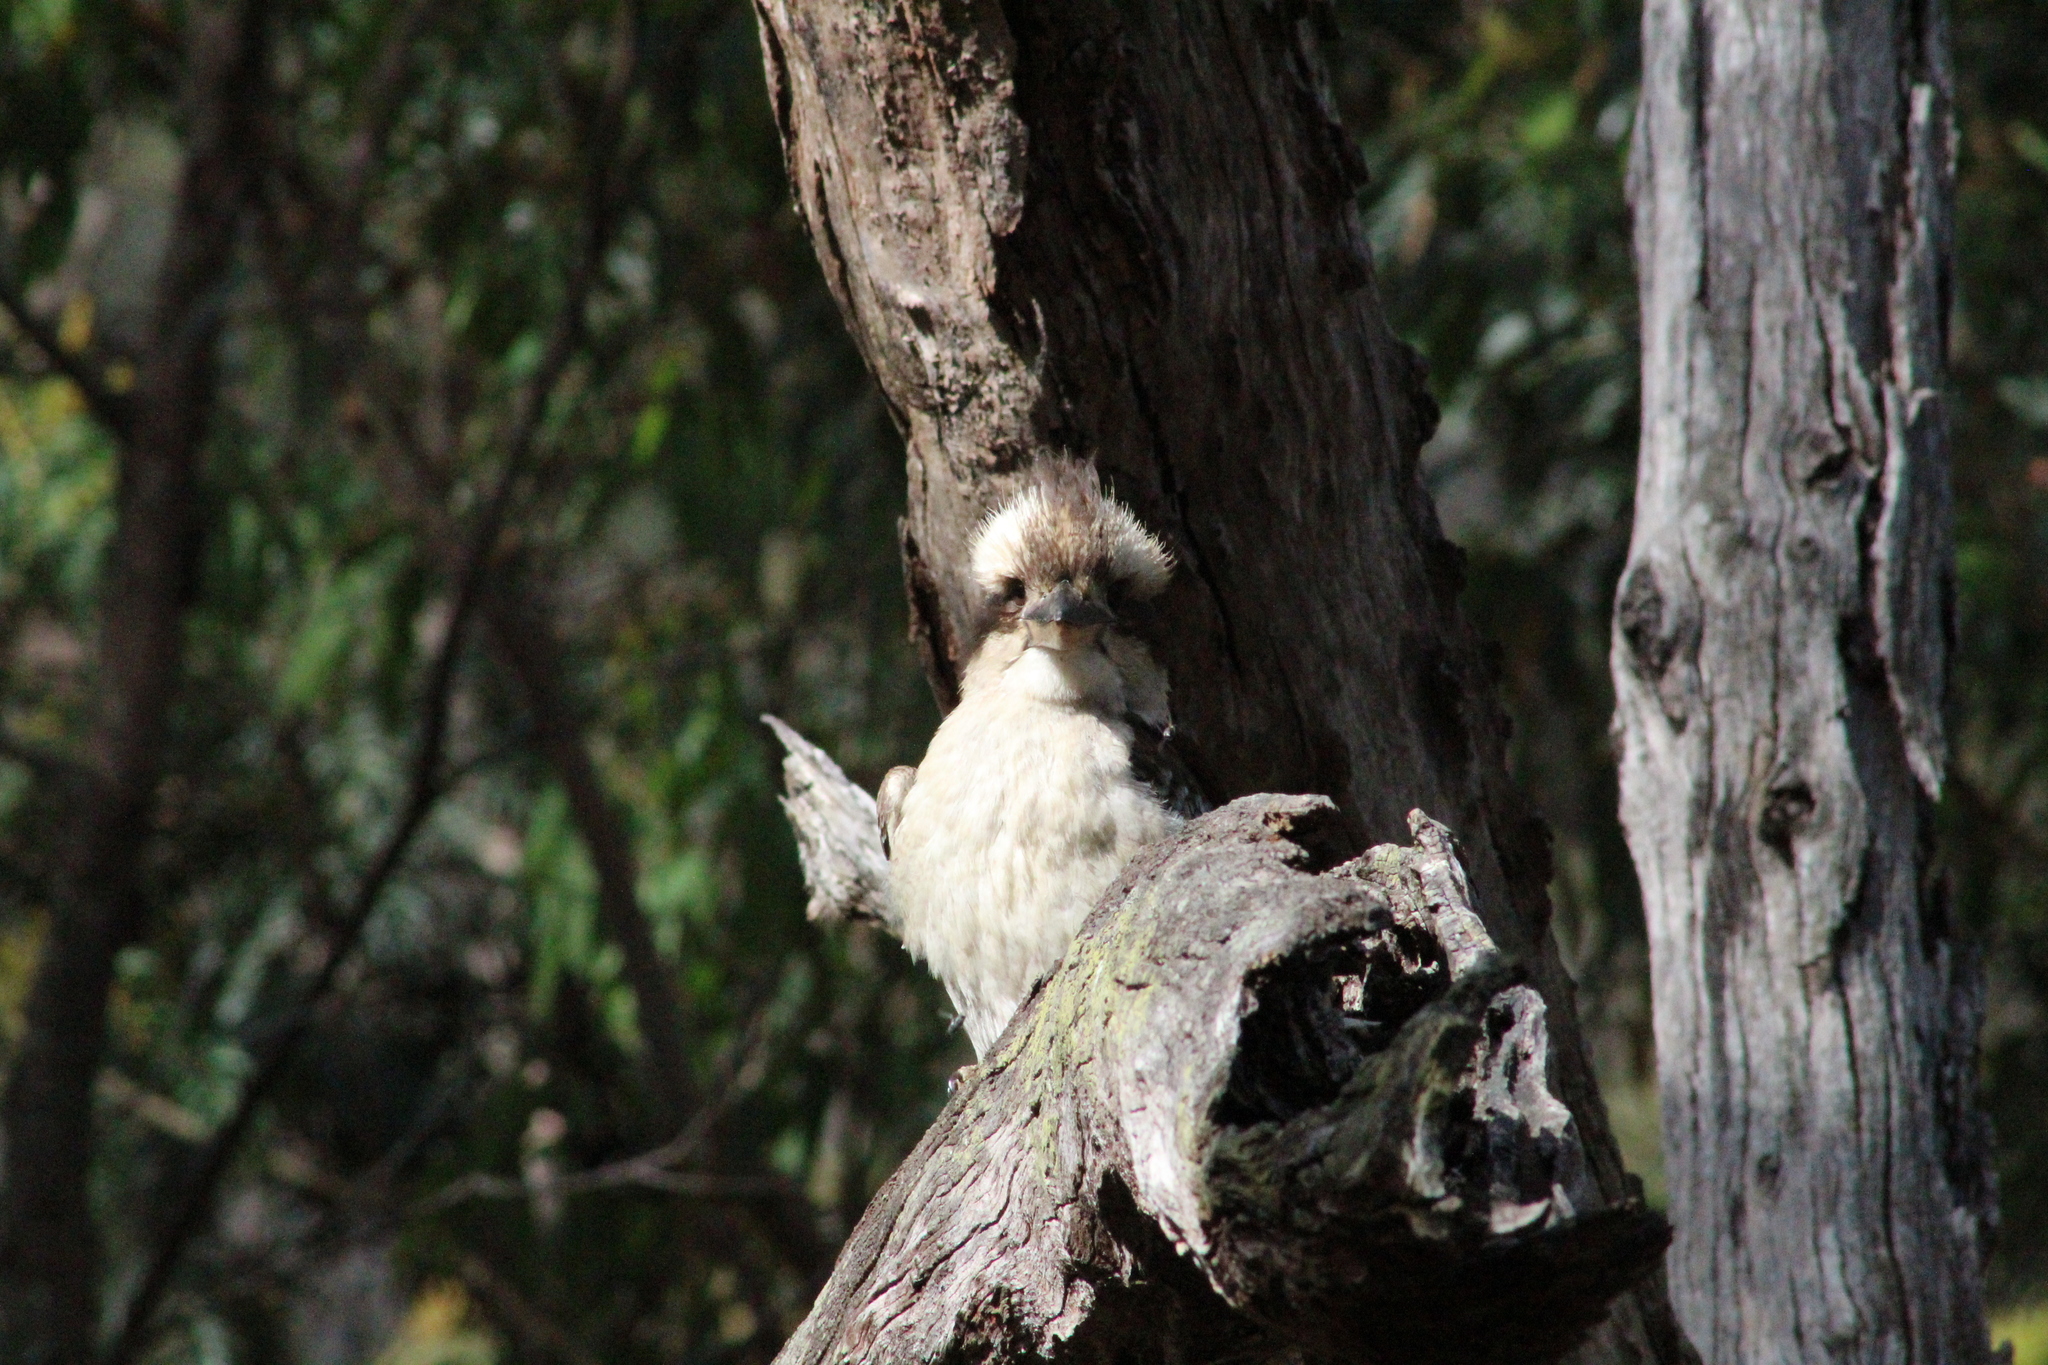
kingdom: Animalia
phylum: Chordata
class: Aves
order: Coraciiformes
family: Alcedinidae
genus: Dacelo
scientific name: Dacelo novaeguineae
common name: Laughing kookaburra
